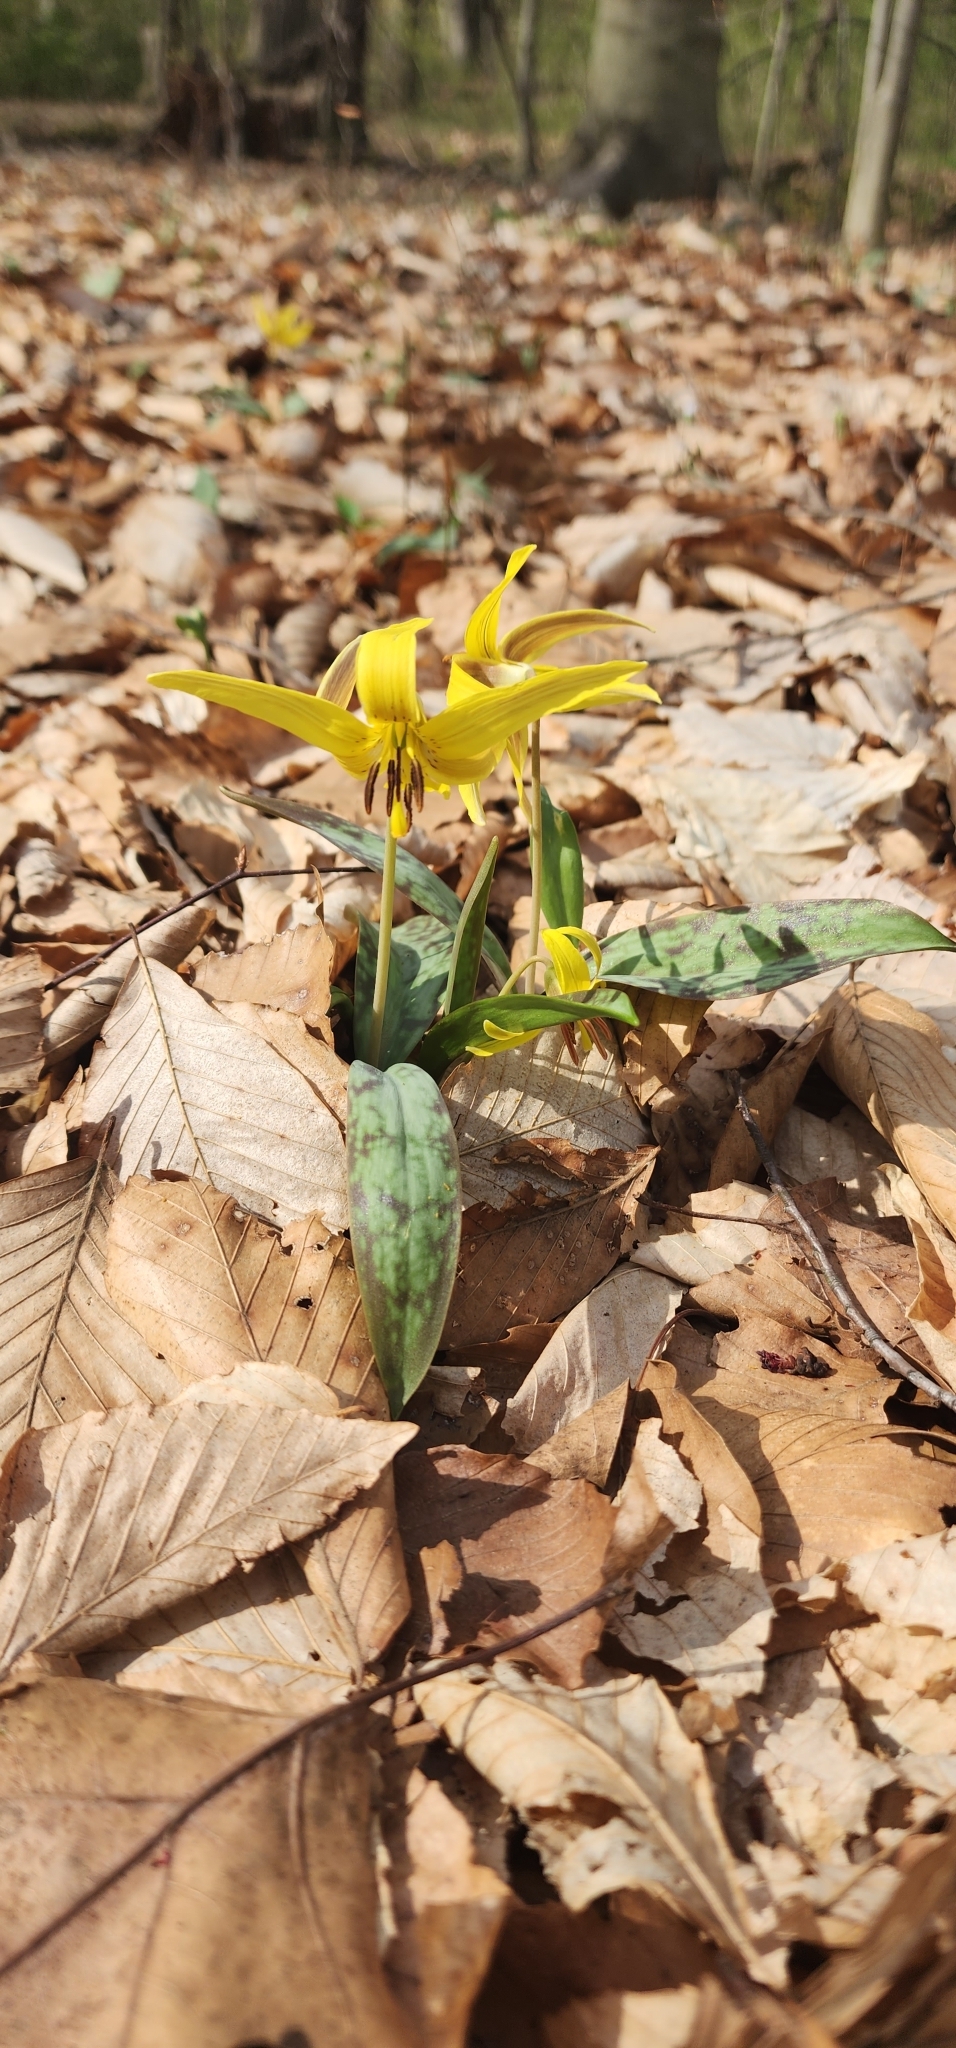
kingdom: Plantae
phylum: Tracheophyta
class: Liliopsida
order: Liliales
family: Liliaceae
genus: Erythronium
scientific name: Erythronium americanum
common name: Yellow adder's-tongue
